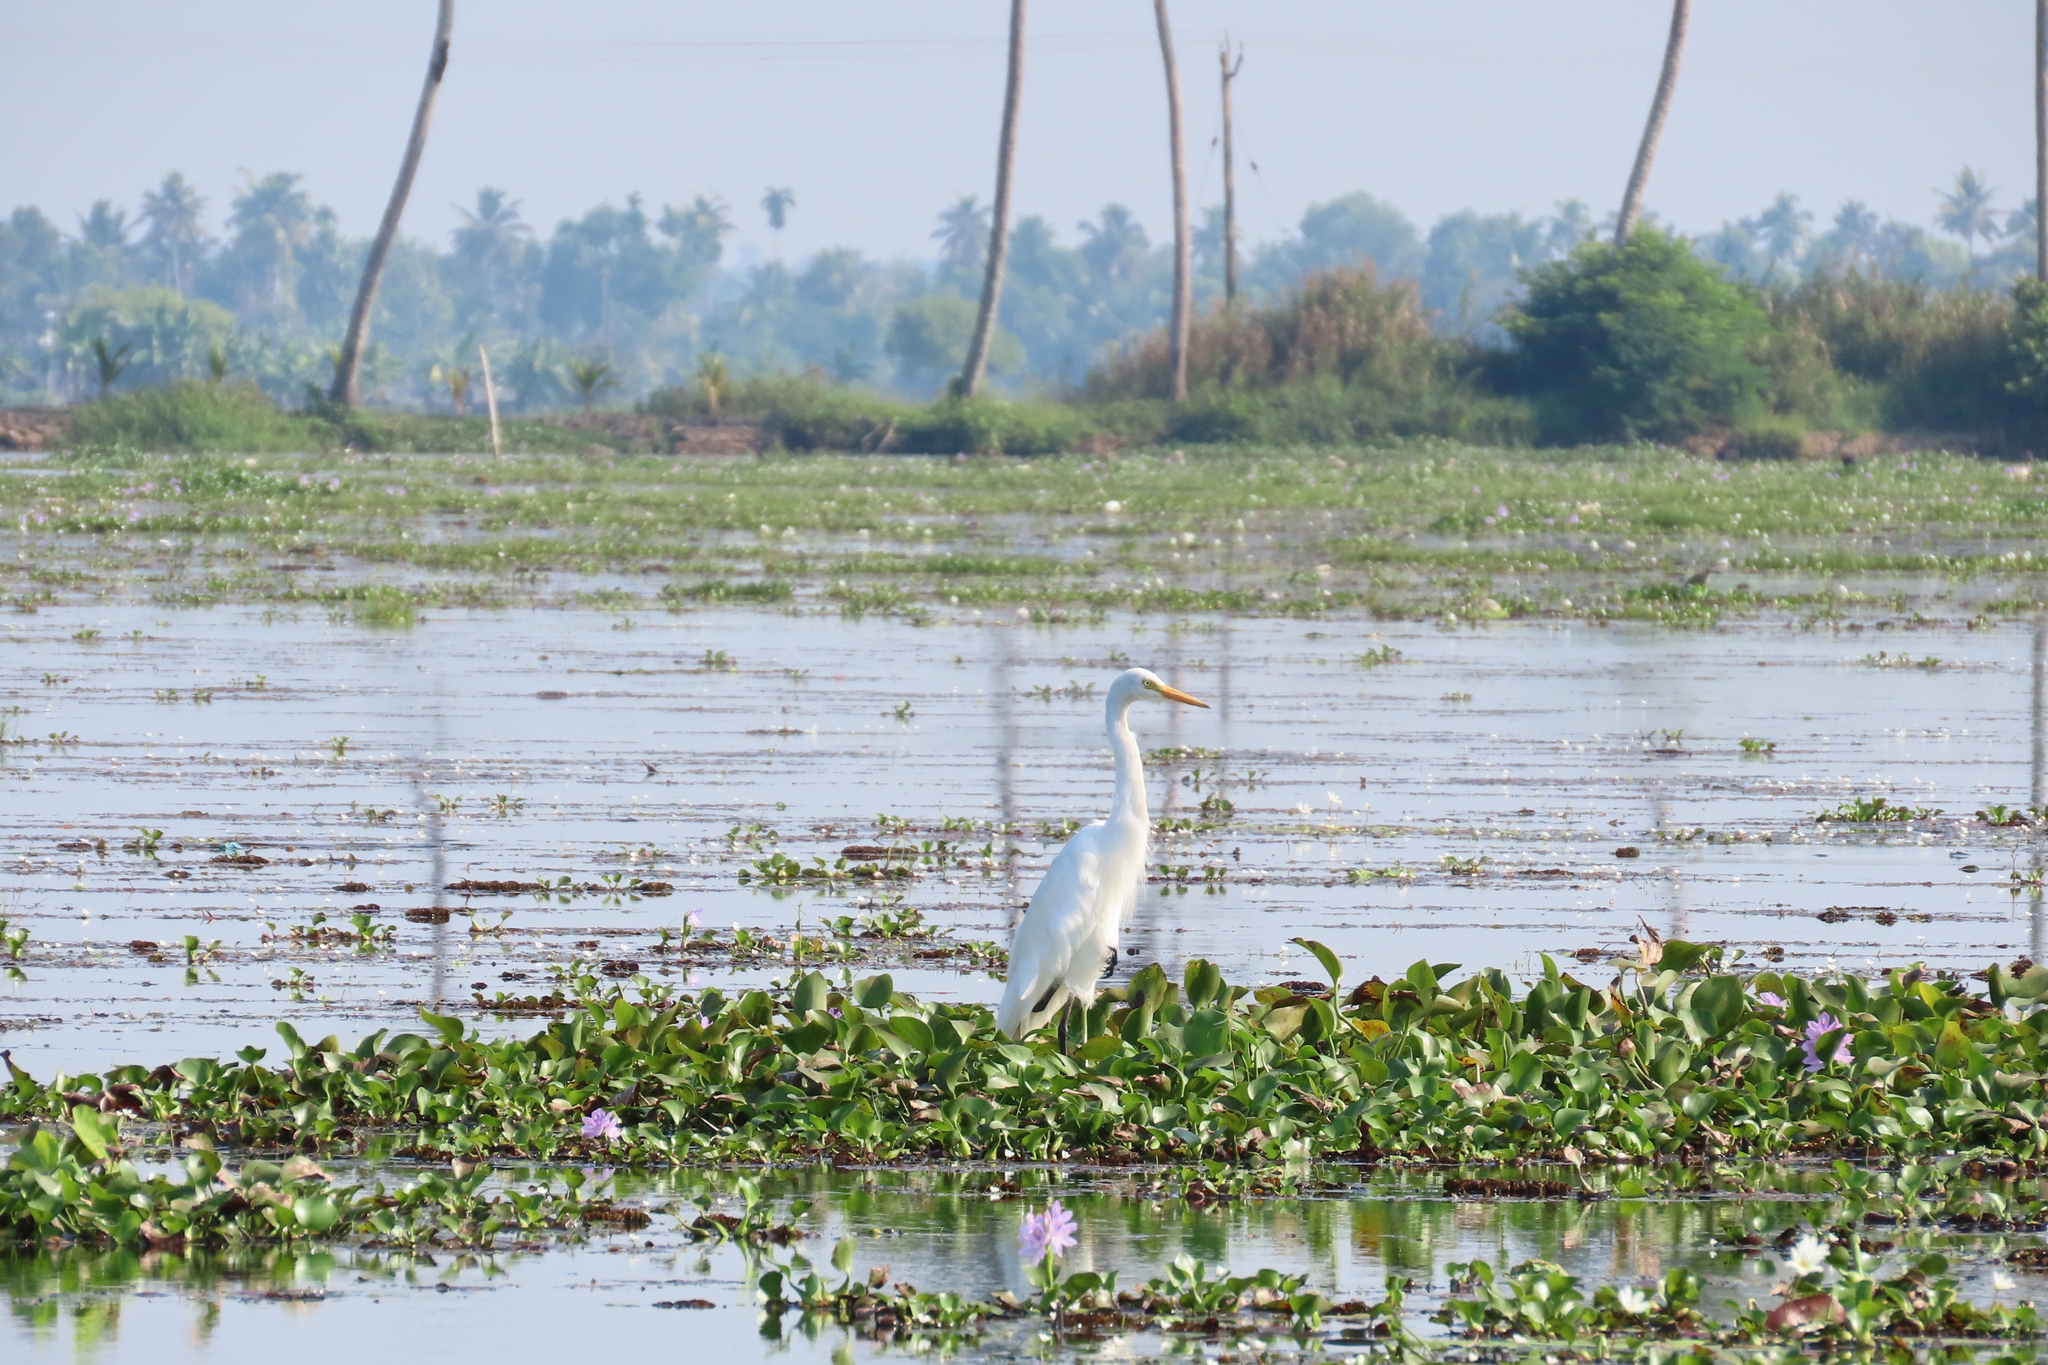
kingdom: Animalia
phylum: Chordata
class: Aves
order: Pelecaniformes
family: Ardeidae
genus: Egretta
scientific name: Egretta intermedia
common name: Intermediate egret
